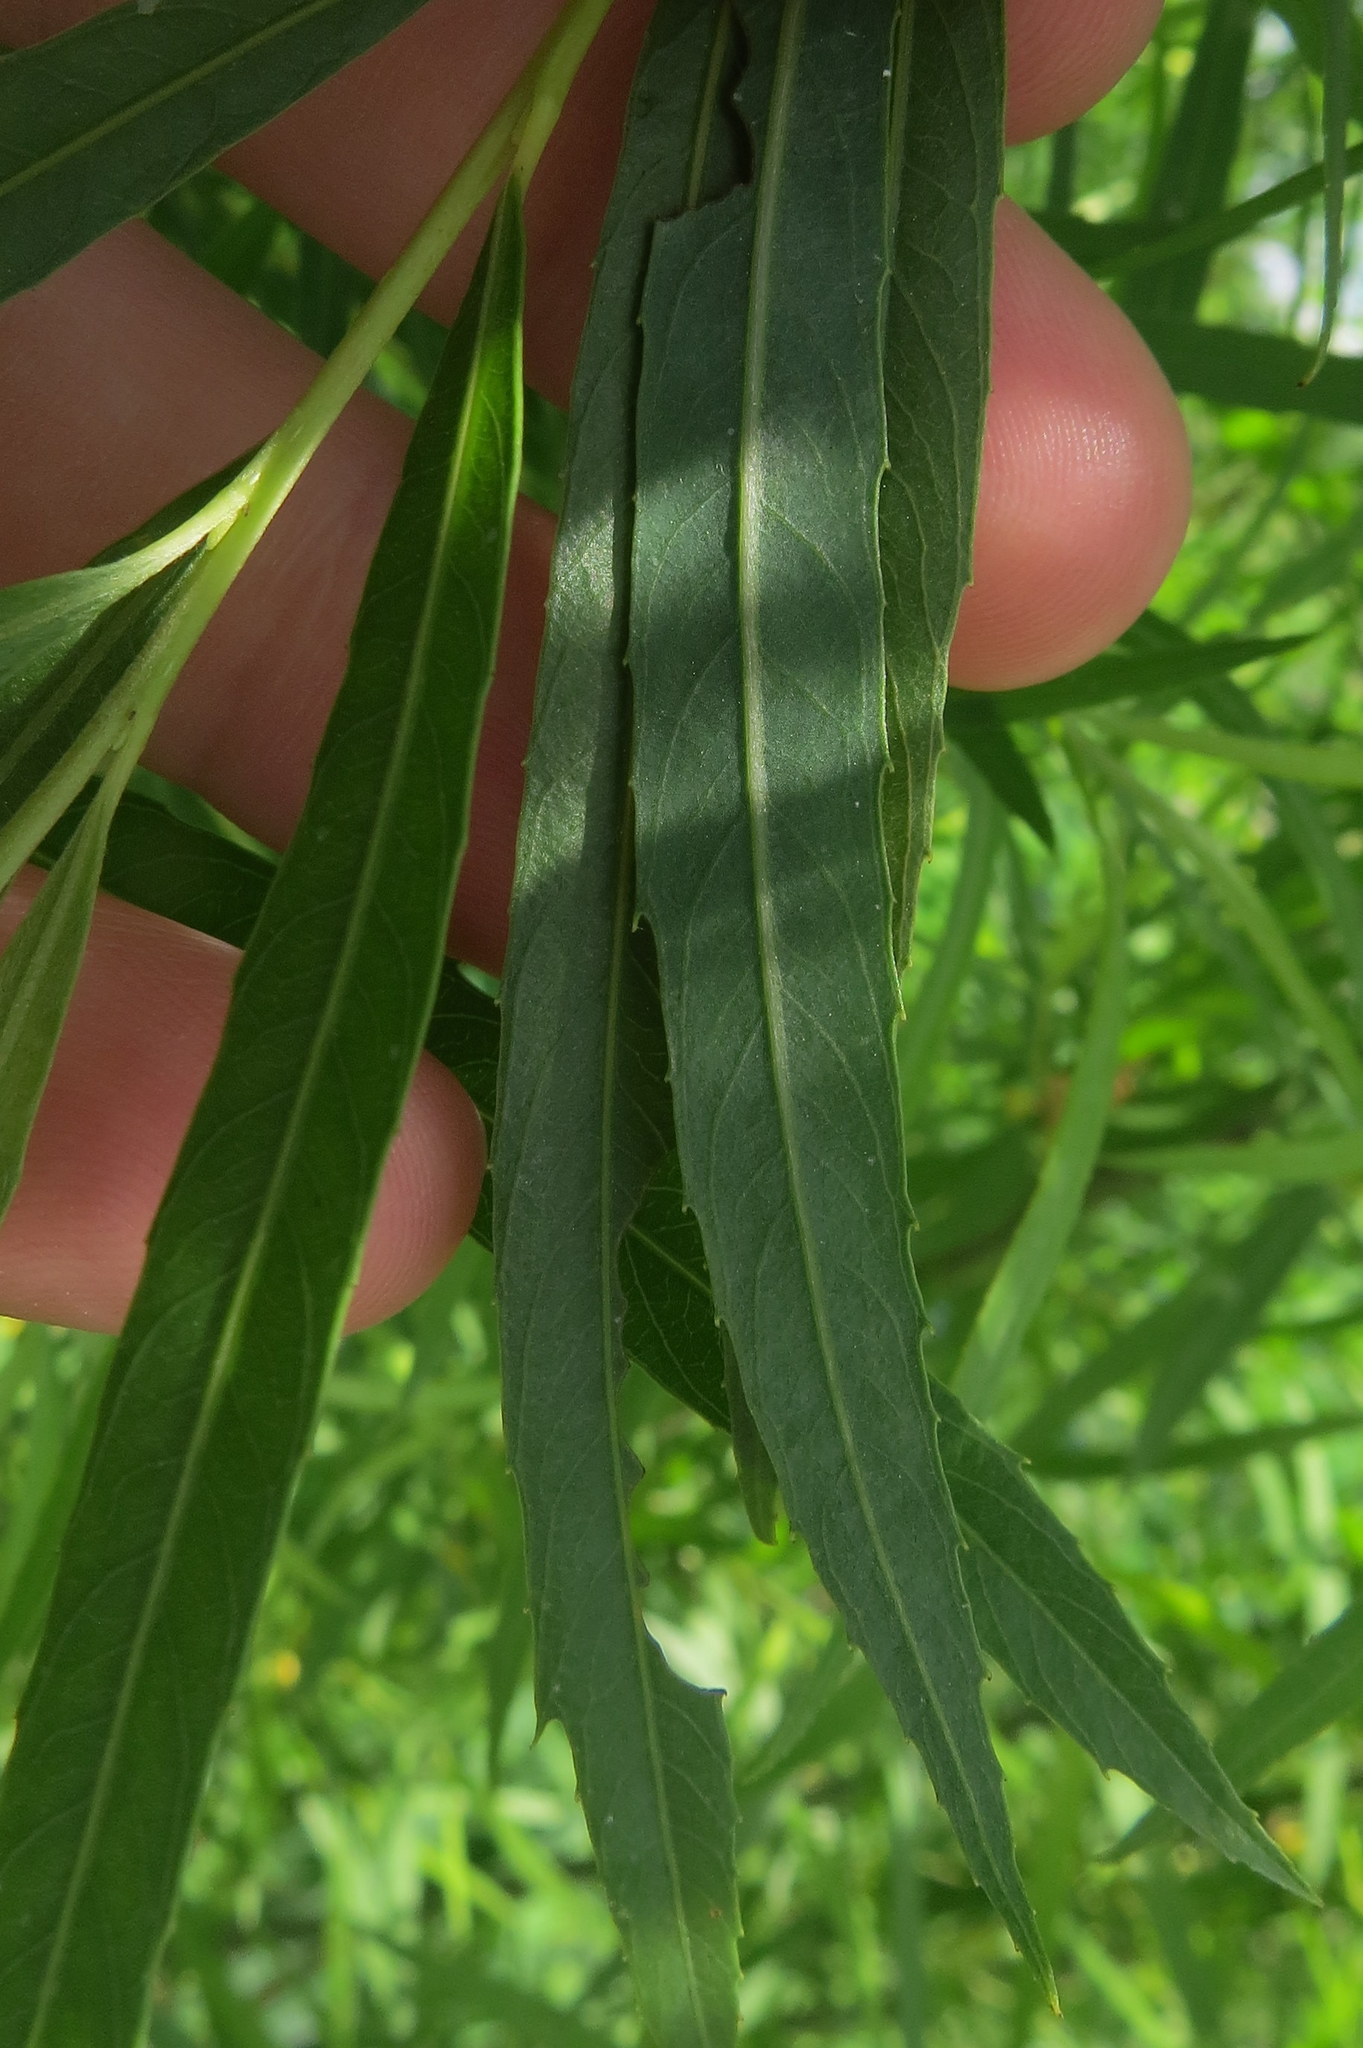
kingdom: Plantae
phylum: Tracheophyta
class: Magnoliopsida
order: Malpighiales
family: Salicaceae
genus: Salix
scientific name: Salix interior
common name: Sandbar willow
